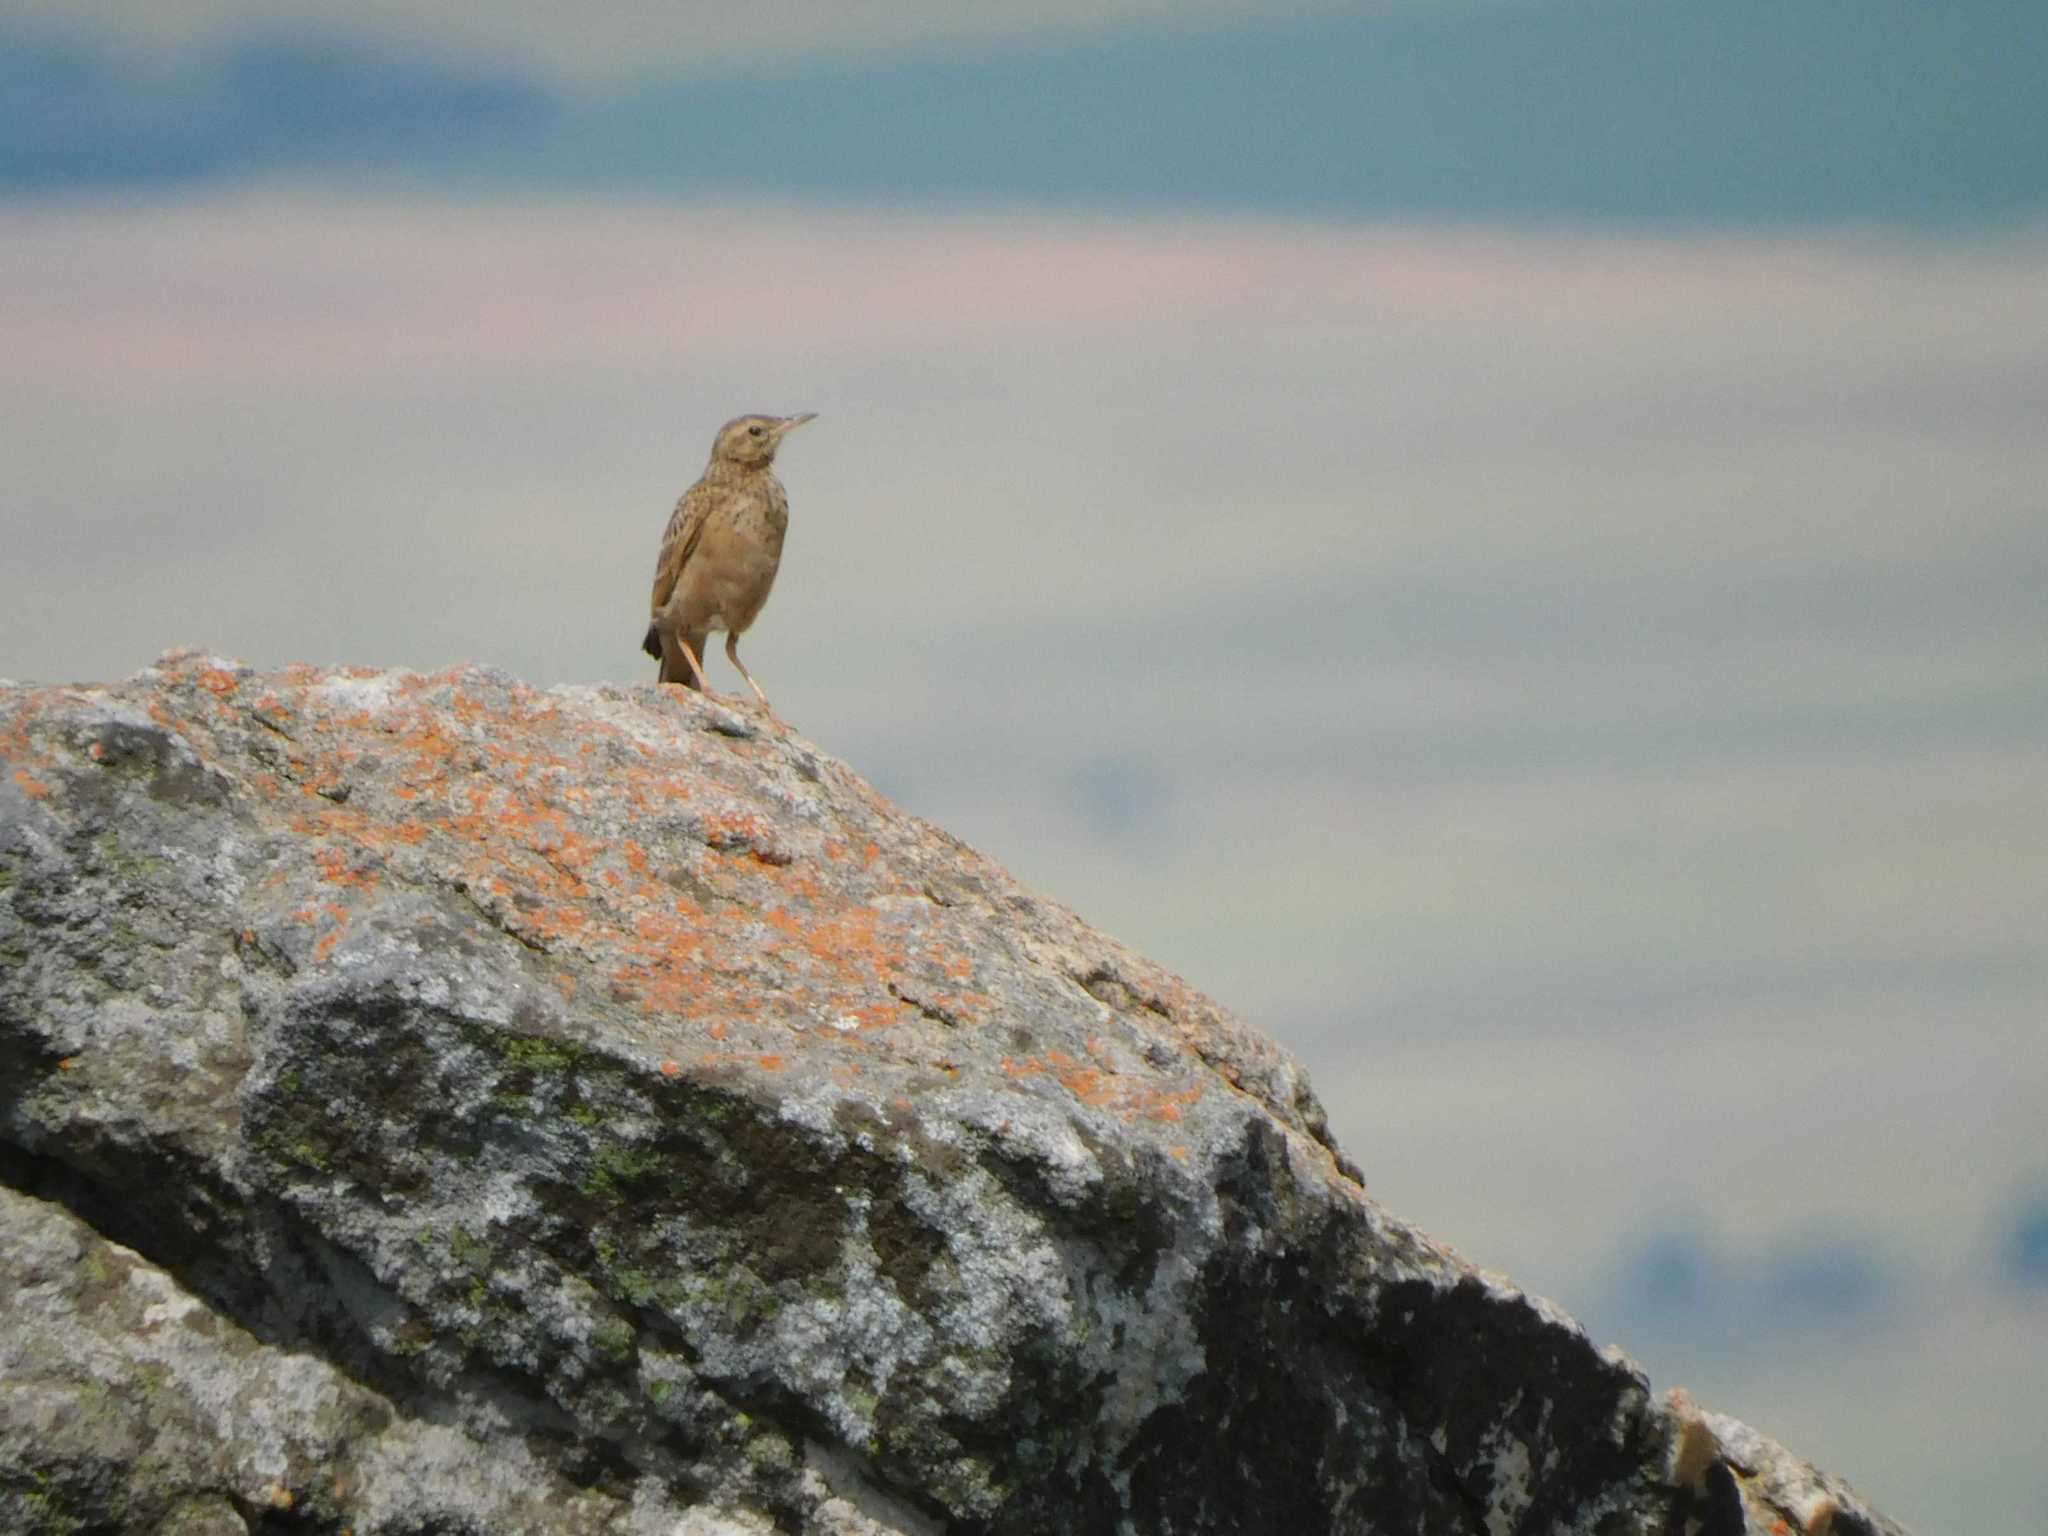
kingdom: Animalia
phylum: Chordata
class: Aves
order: Passeriformes
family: Motacillidae
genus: Anthus
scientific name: Anthus nicholsoni
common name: Nicholson's pipit
